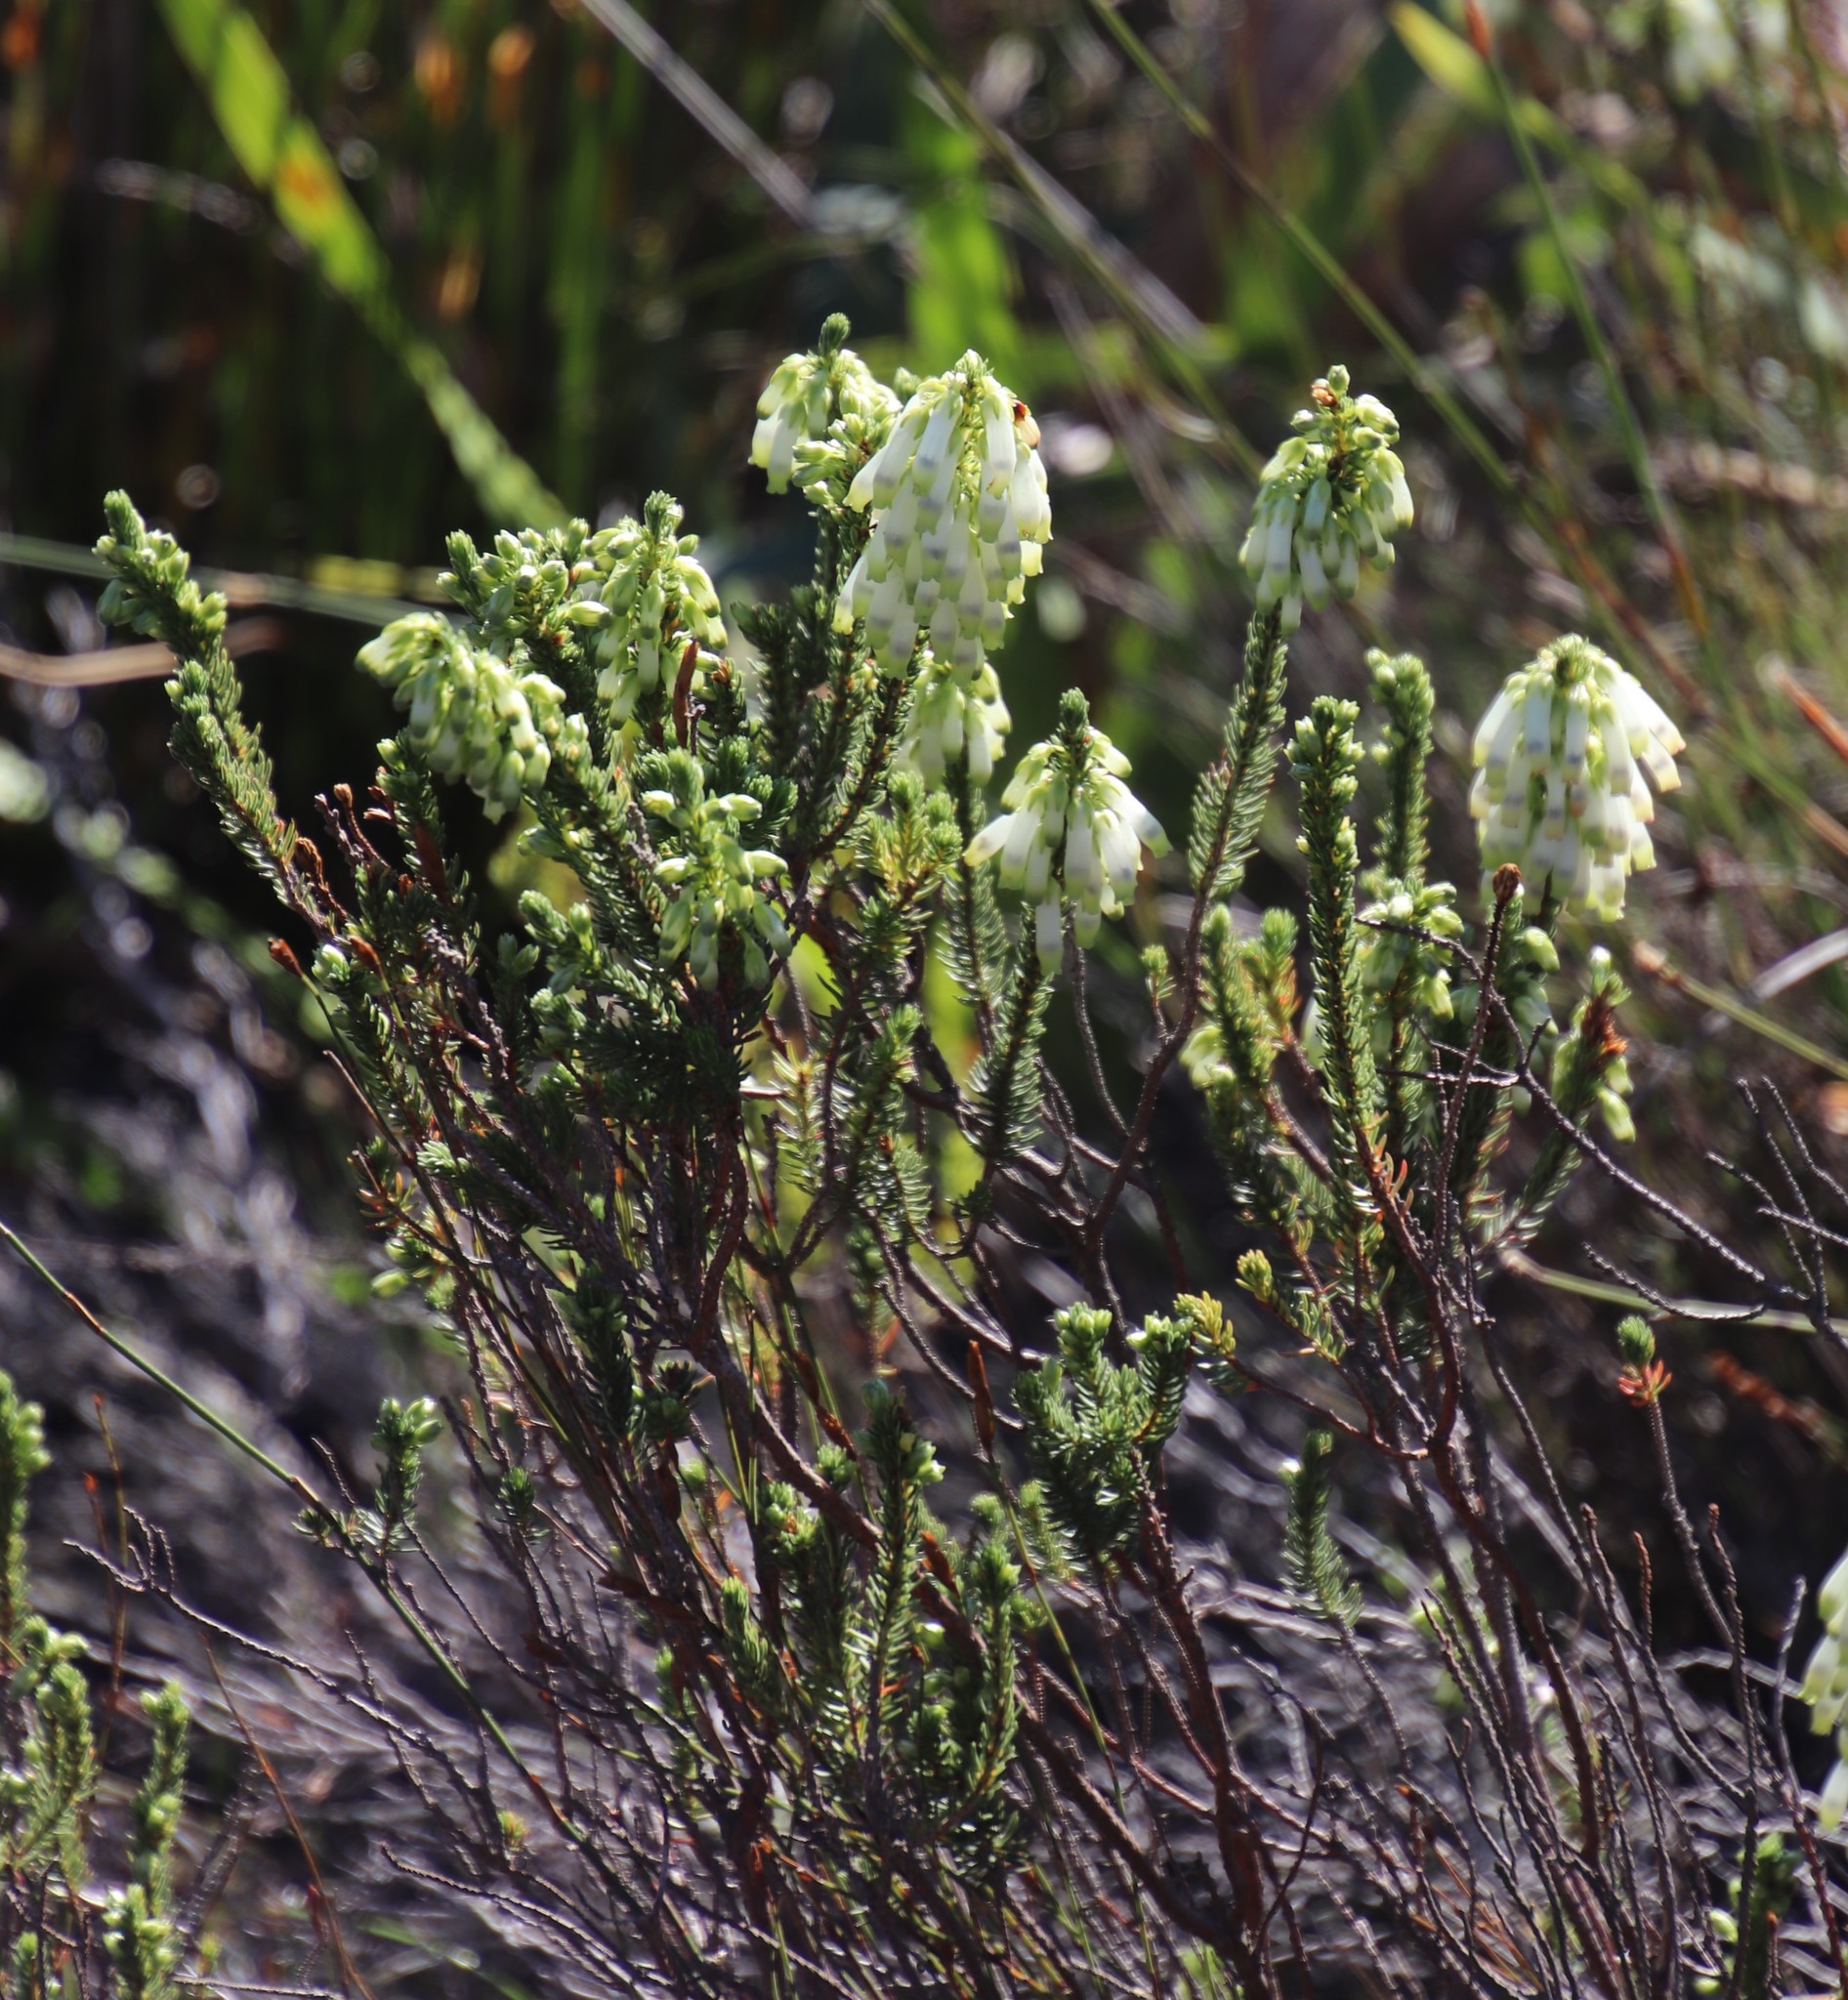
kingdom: Plantae
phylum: Tracheophyta
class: Magnoliopsida
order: Ericales
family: Ericaceae
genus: Erica
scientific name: Erica mammosa
